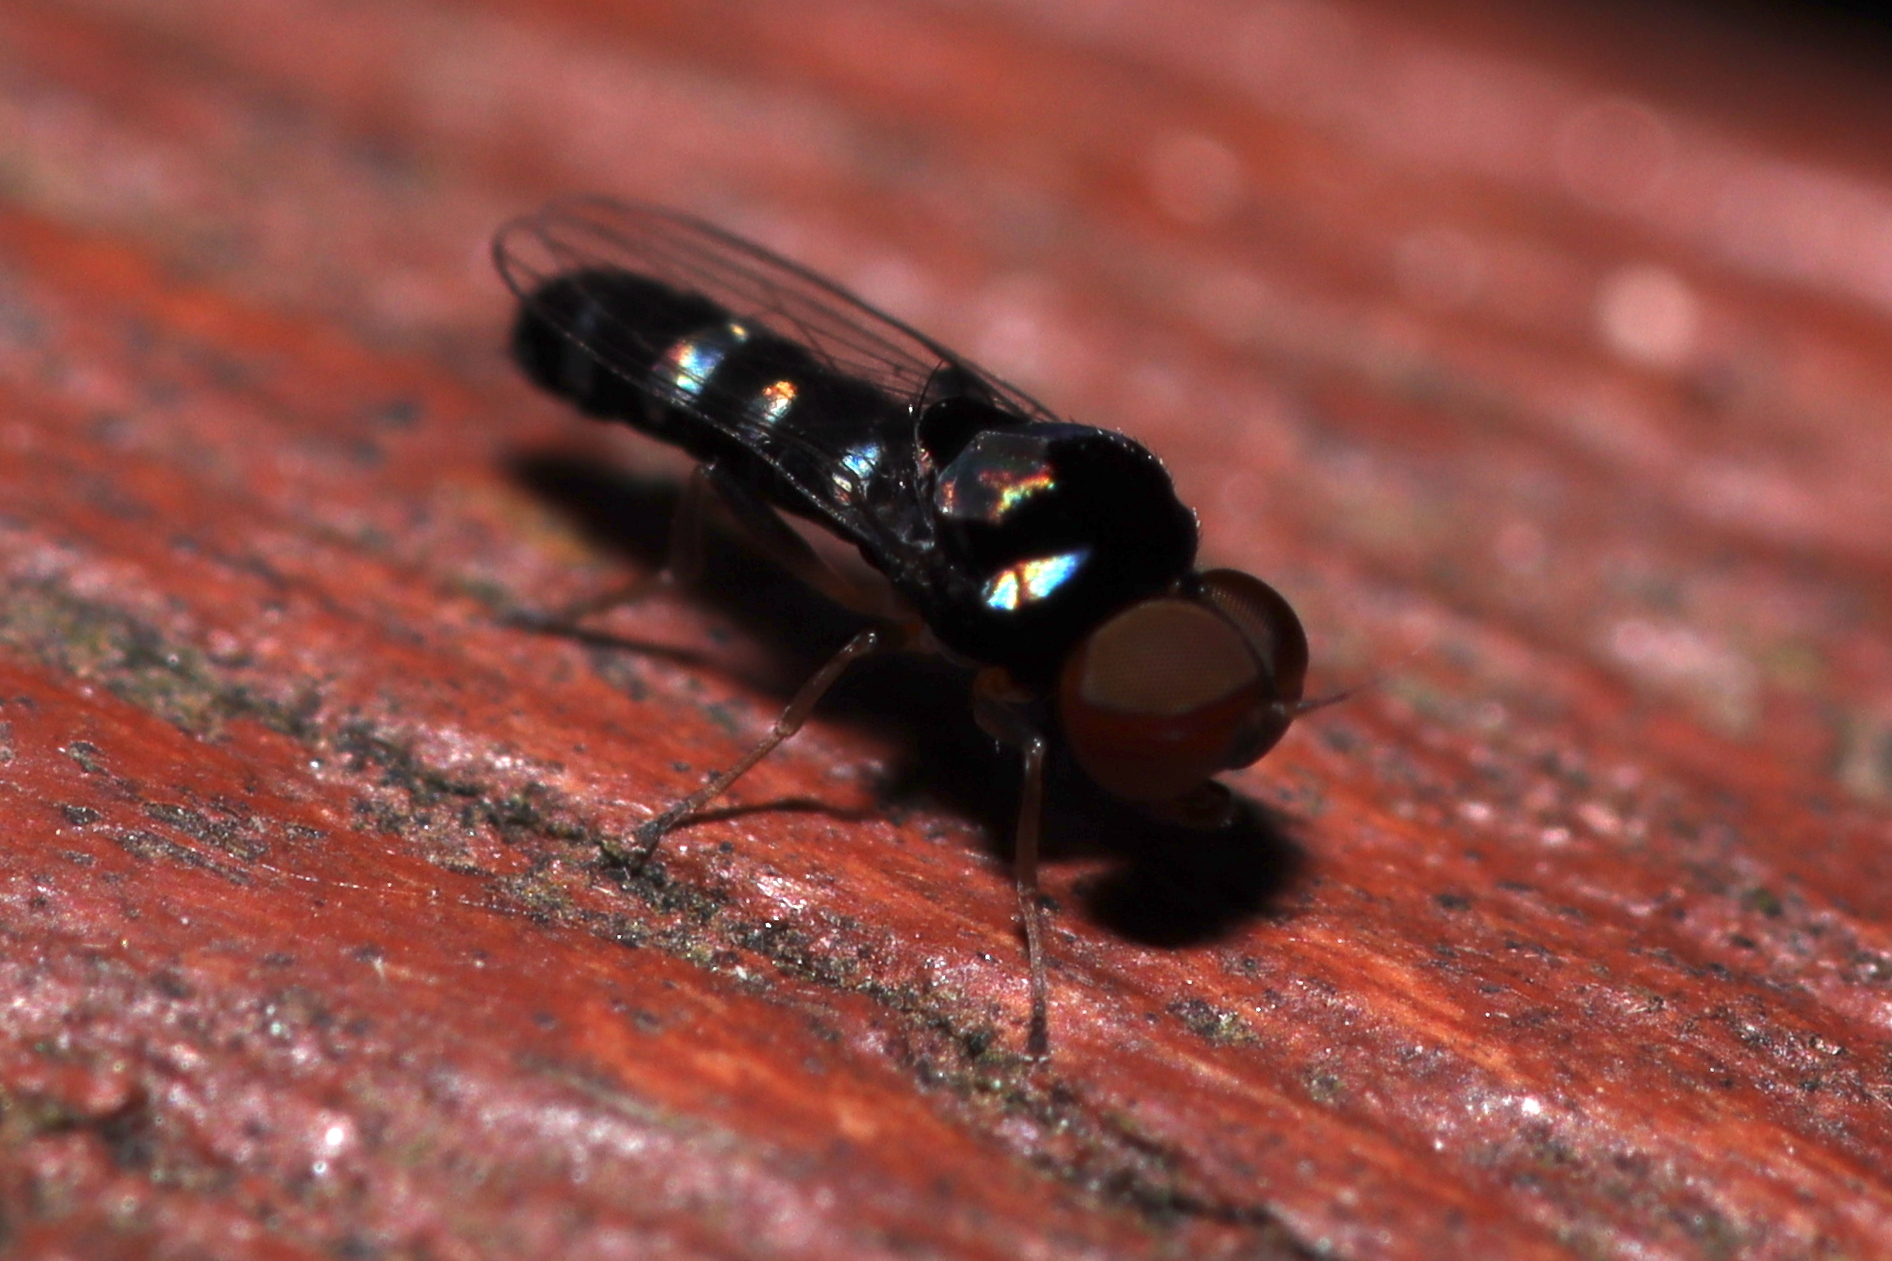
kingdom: Animalia
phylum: Arthropoda
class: Insecta
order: Diptera
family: Platypezidae
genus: Bertamyia
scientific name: Bertamyia notata
